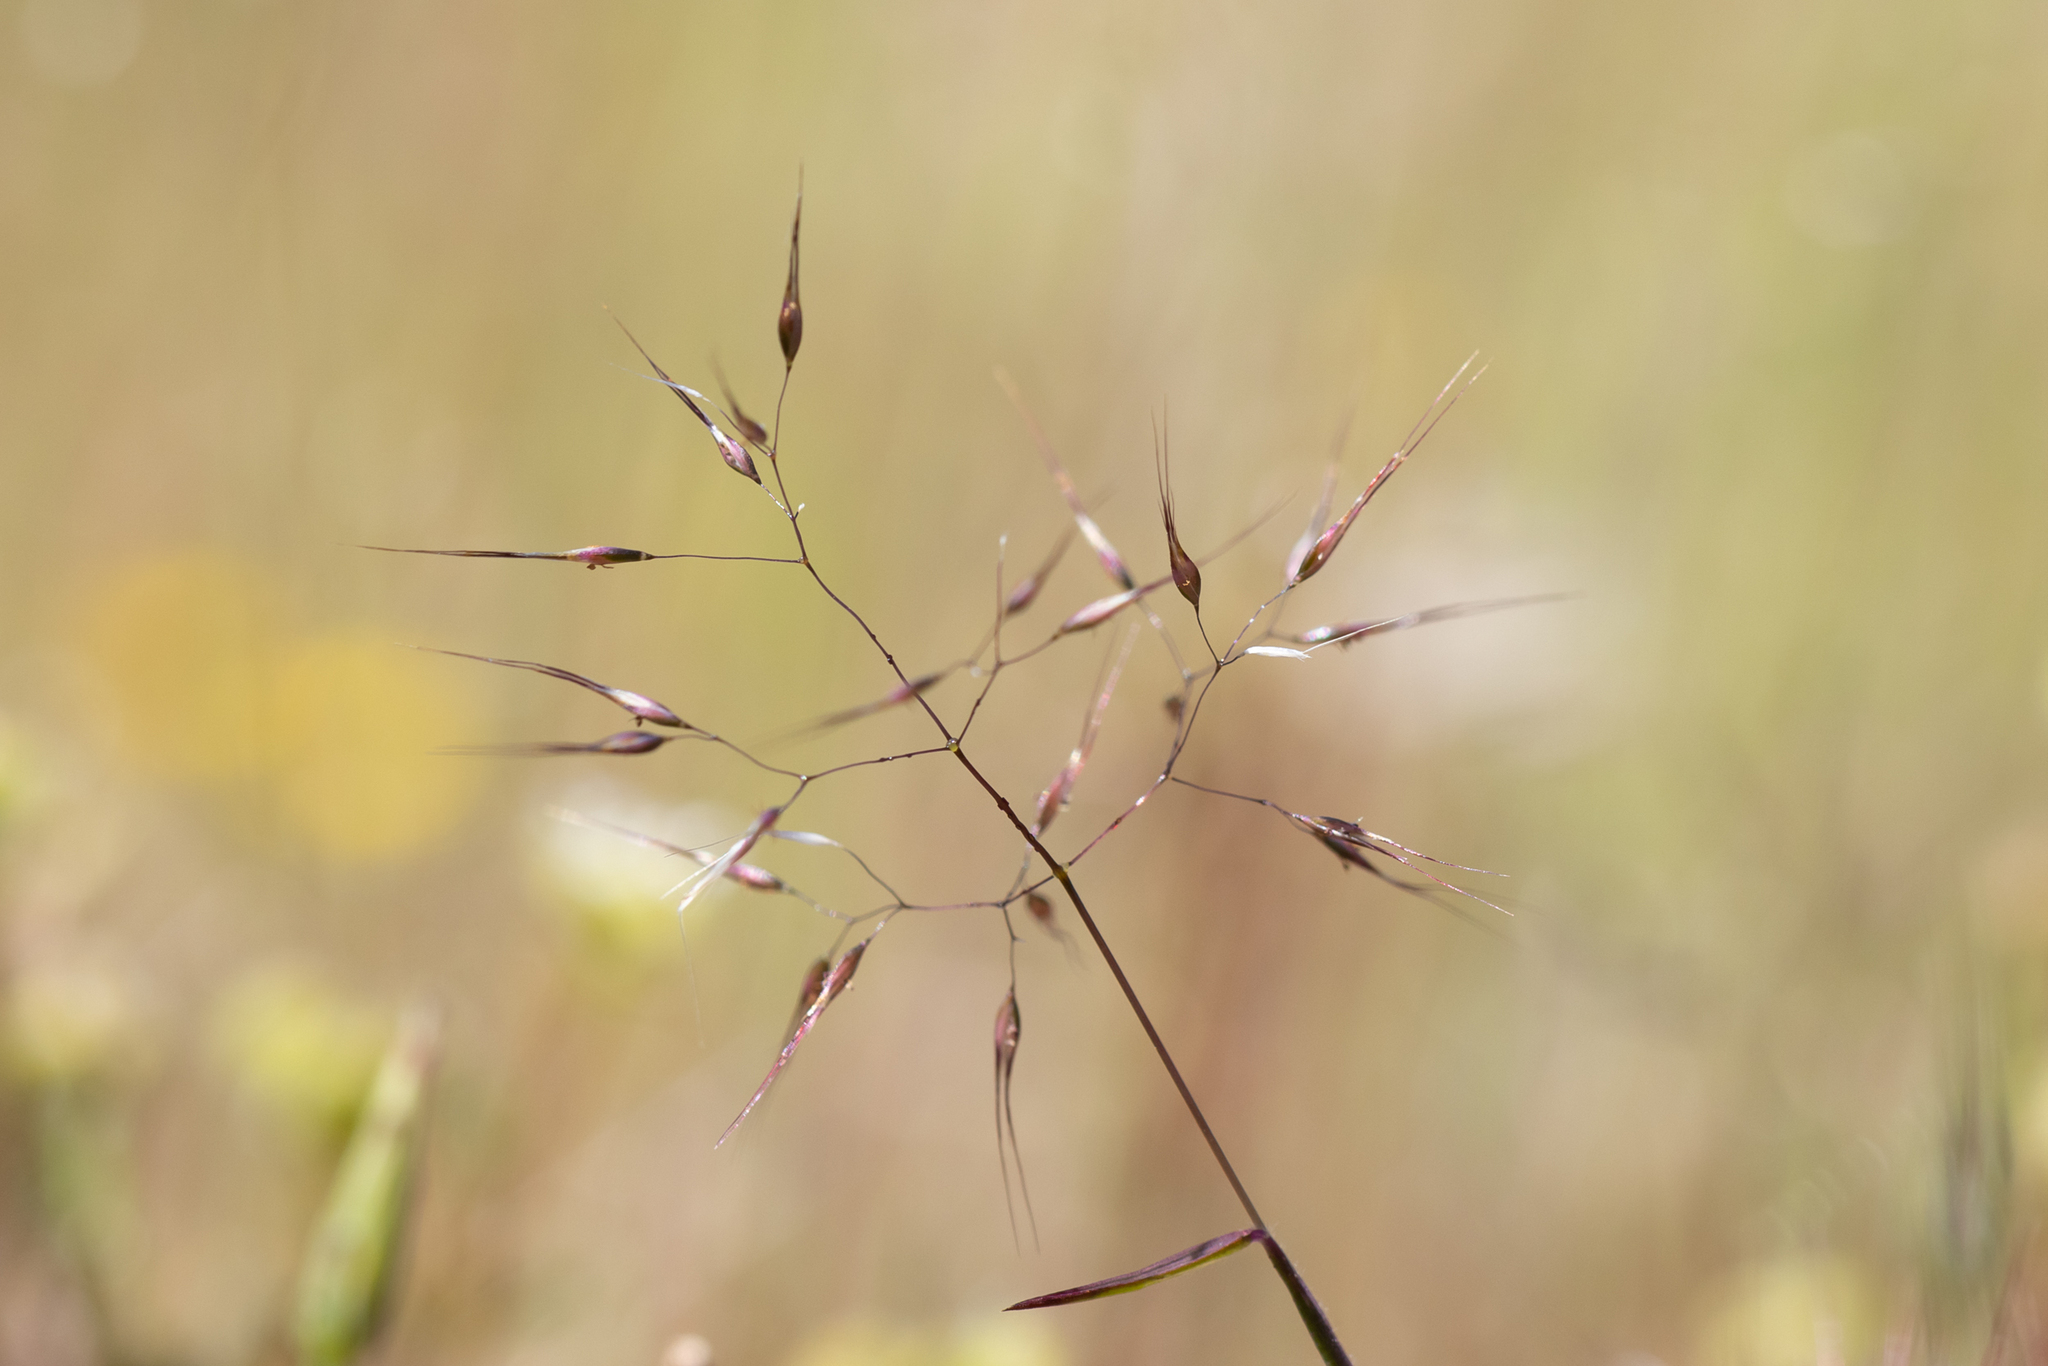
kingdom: Plantae
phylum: Tracheophyta
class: Liliopsida
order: Poales
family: Poaceae
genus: Pentameris
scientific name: Pentameris airoides
